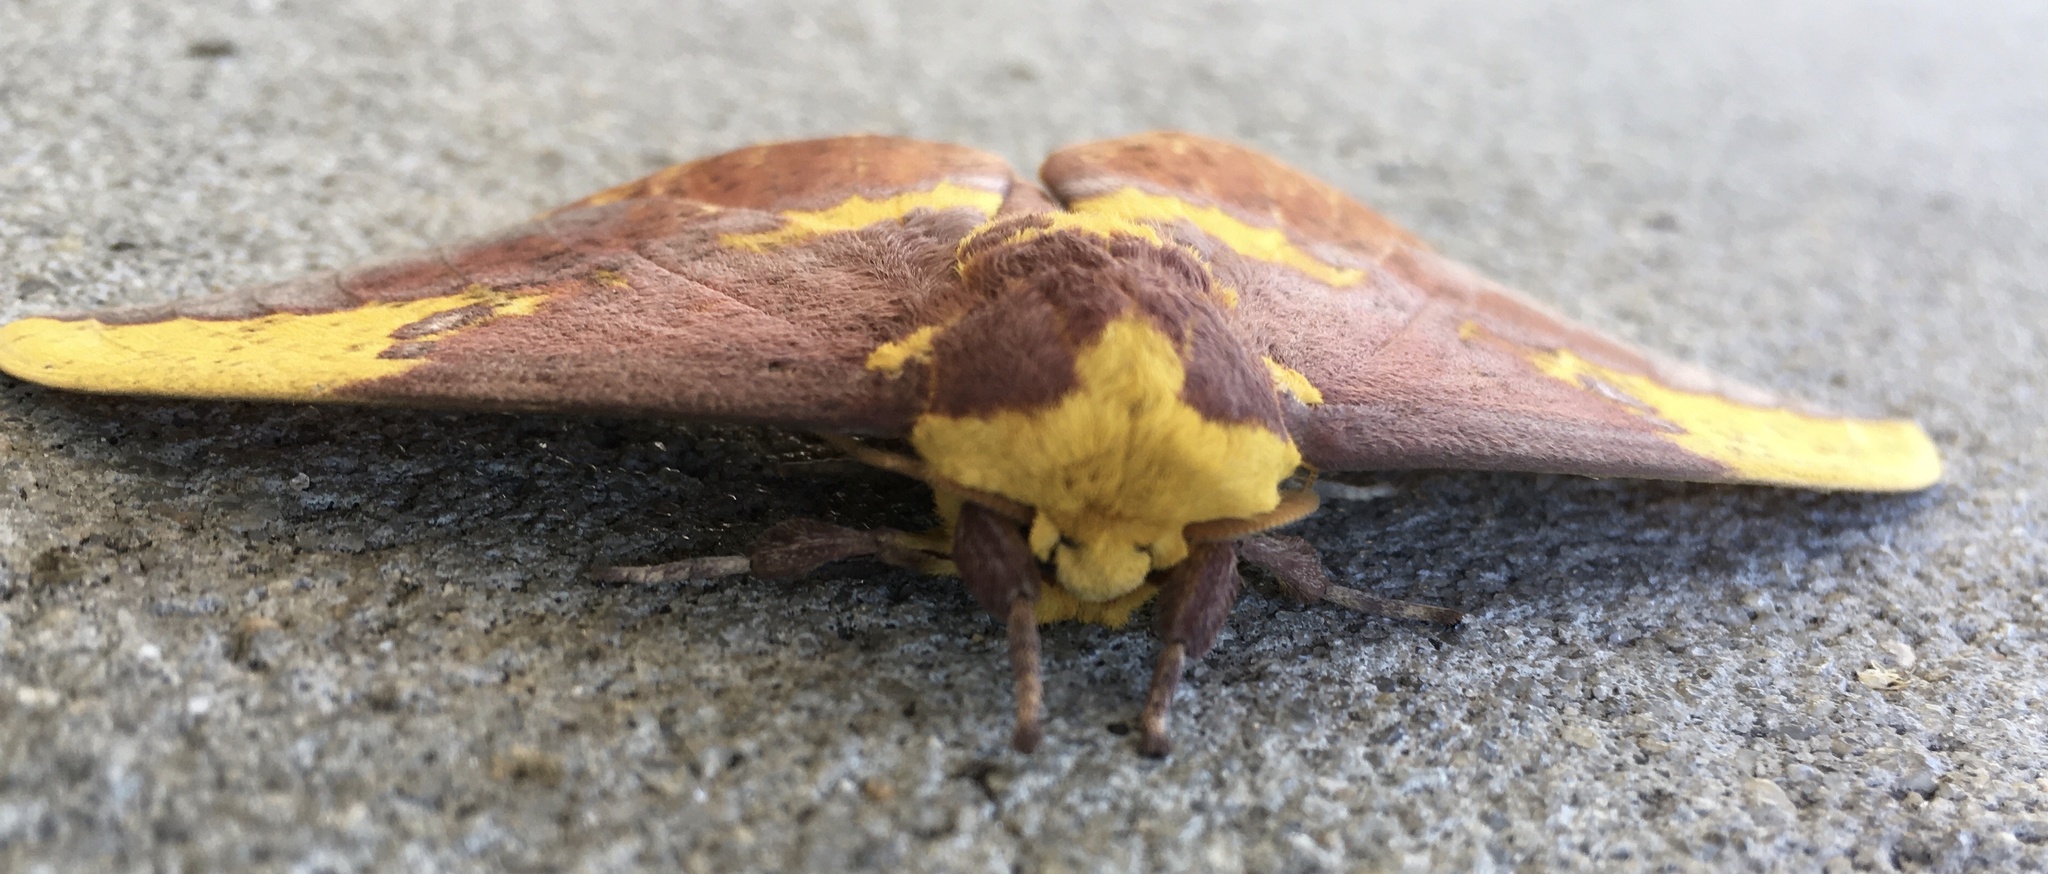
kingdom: Animalia
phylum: Arthropoda
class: Insecta
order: Lepidoptera
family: Saturniidae
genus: Eacles
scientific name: Eacles imperialis
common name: Imperial moth
